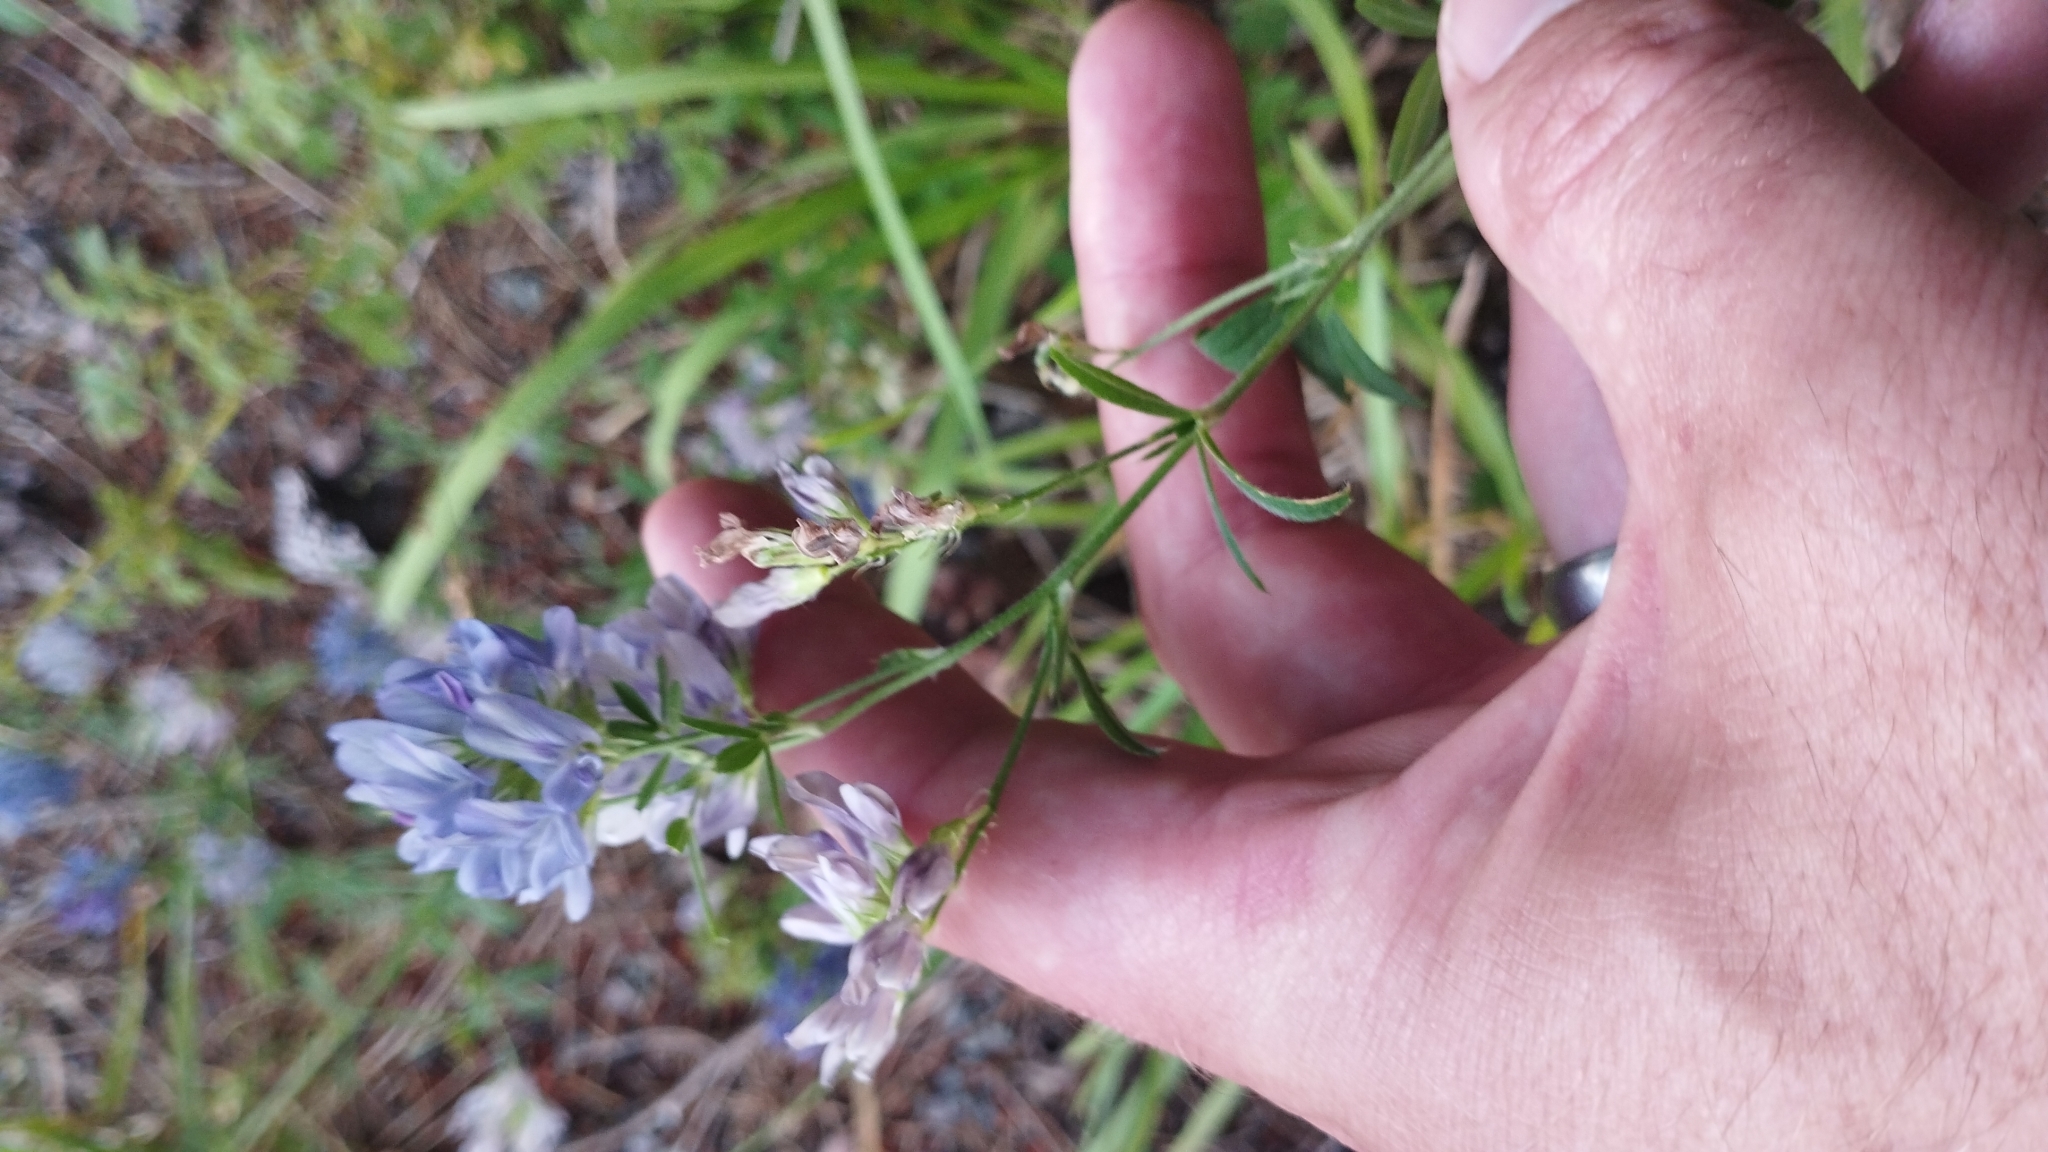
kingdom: Plantae
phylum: Tracheophyta
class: Magnoliopsida
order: Fabales
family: Fabaceae
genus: Medicago
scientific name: Medicago sativa
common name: Alfalfa
